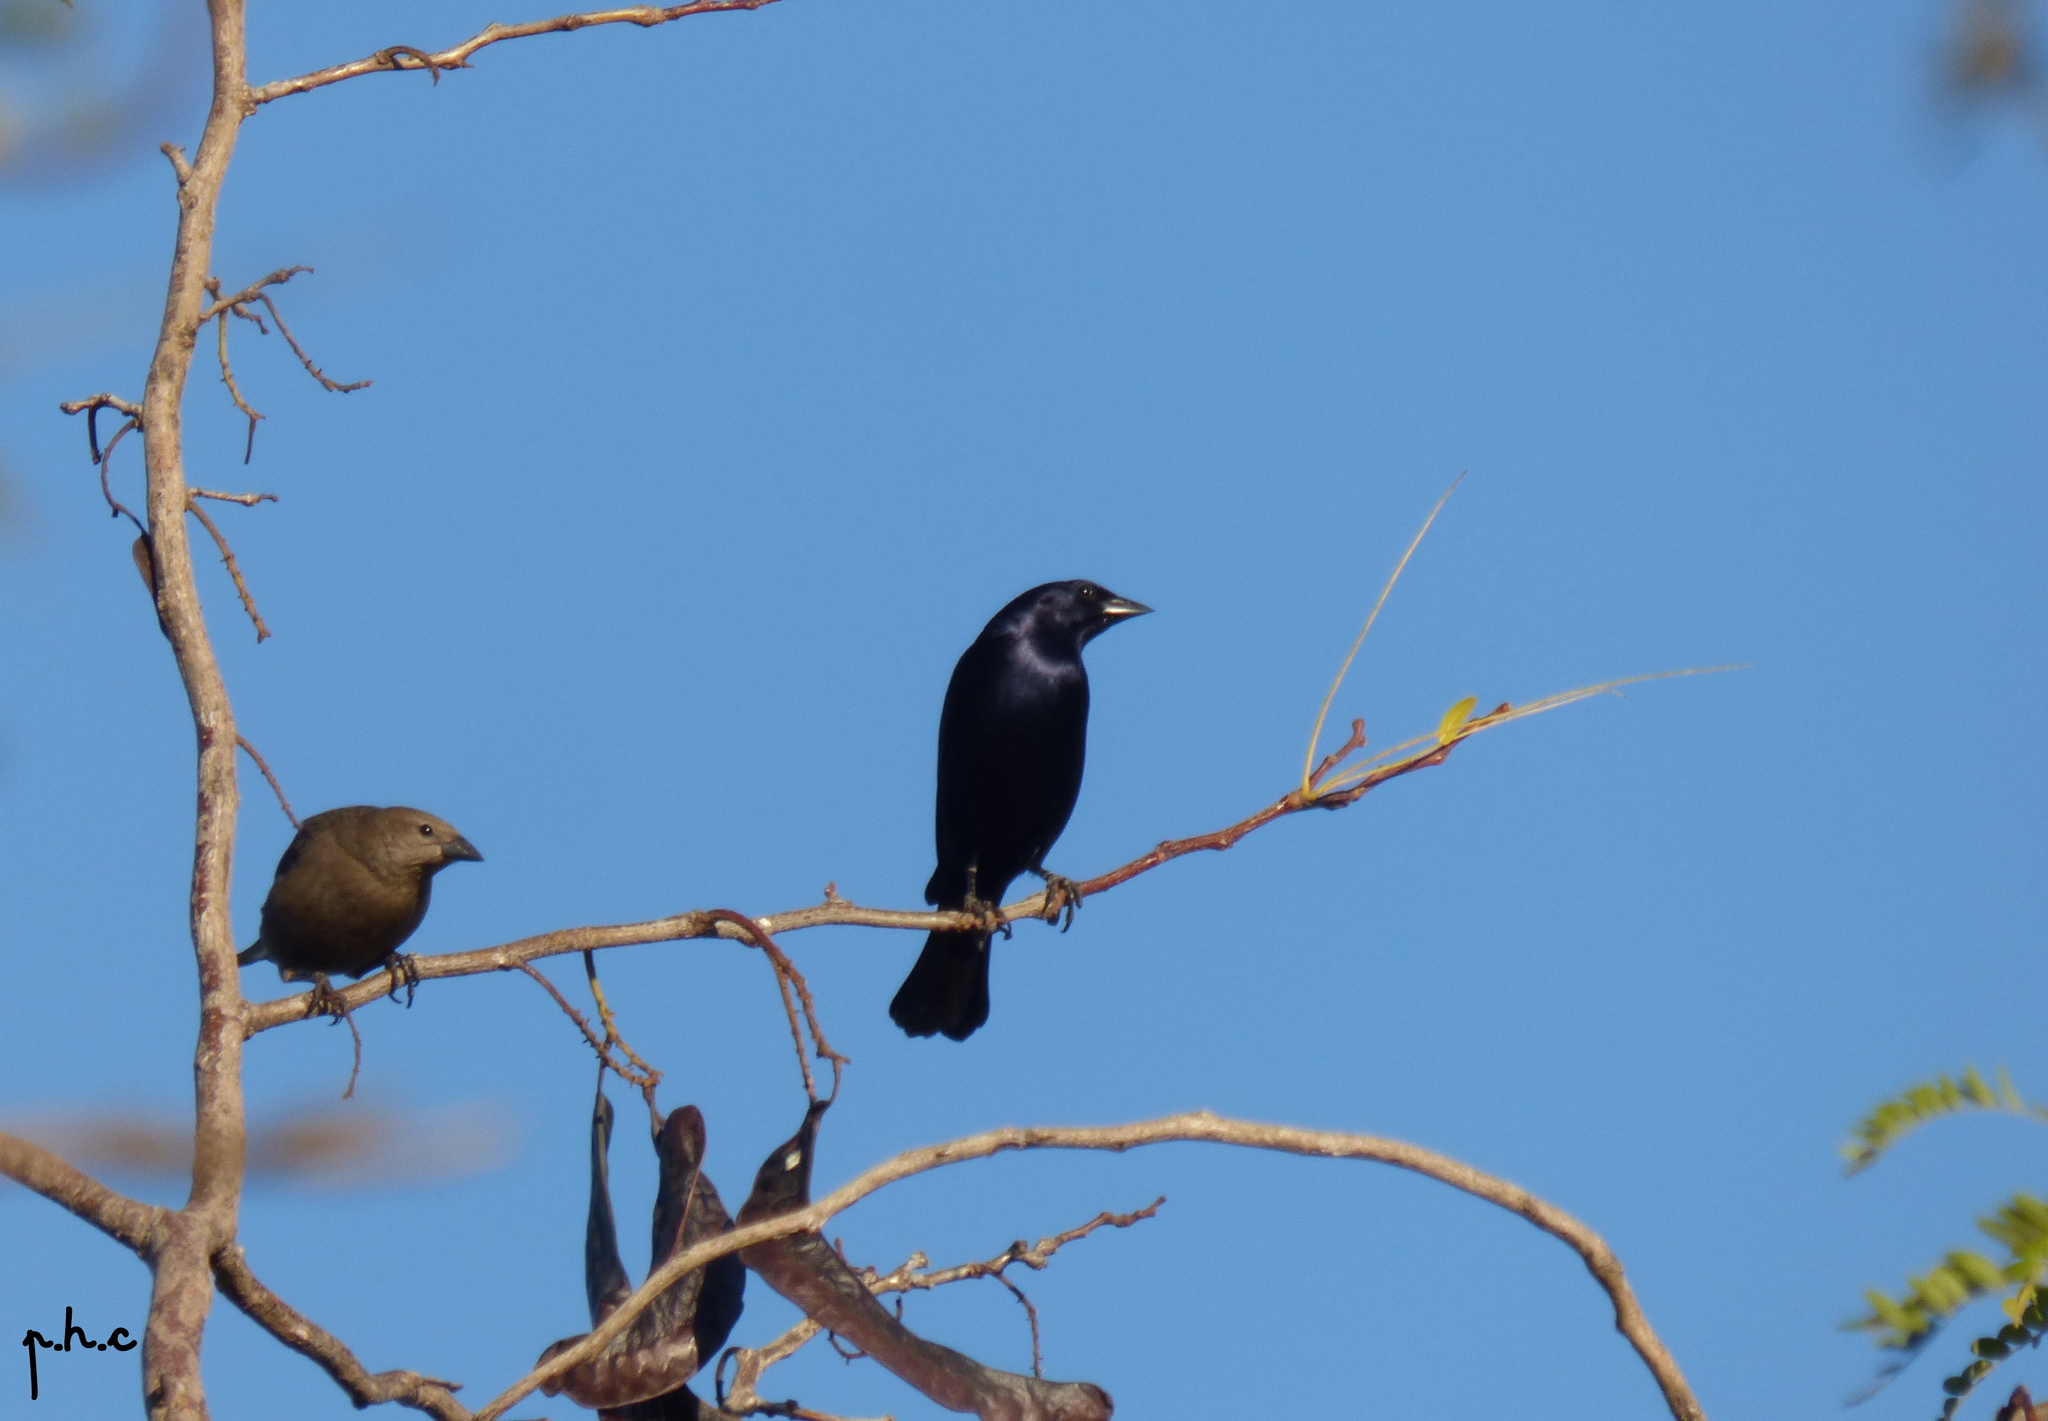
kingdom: Animalia
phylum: Chordata
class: Aves
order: Passeriformes
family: Icteridae
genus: Molothrus
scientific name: Molothrus bonariensis
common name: Shiny cowbird
